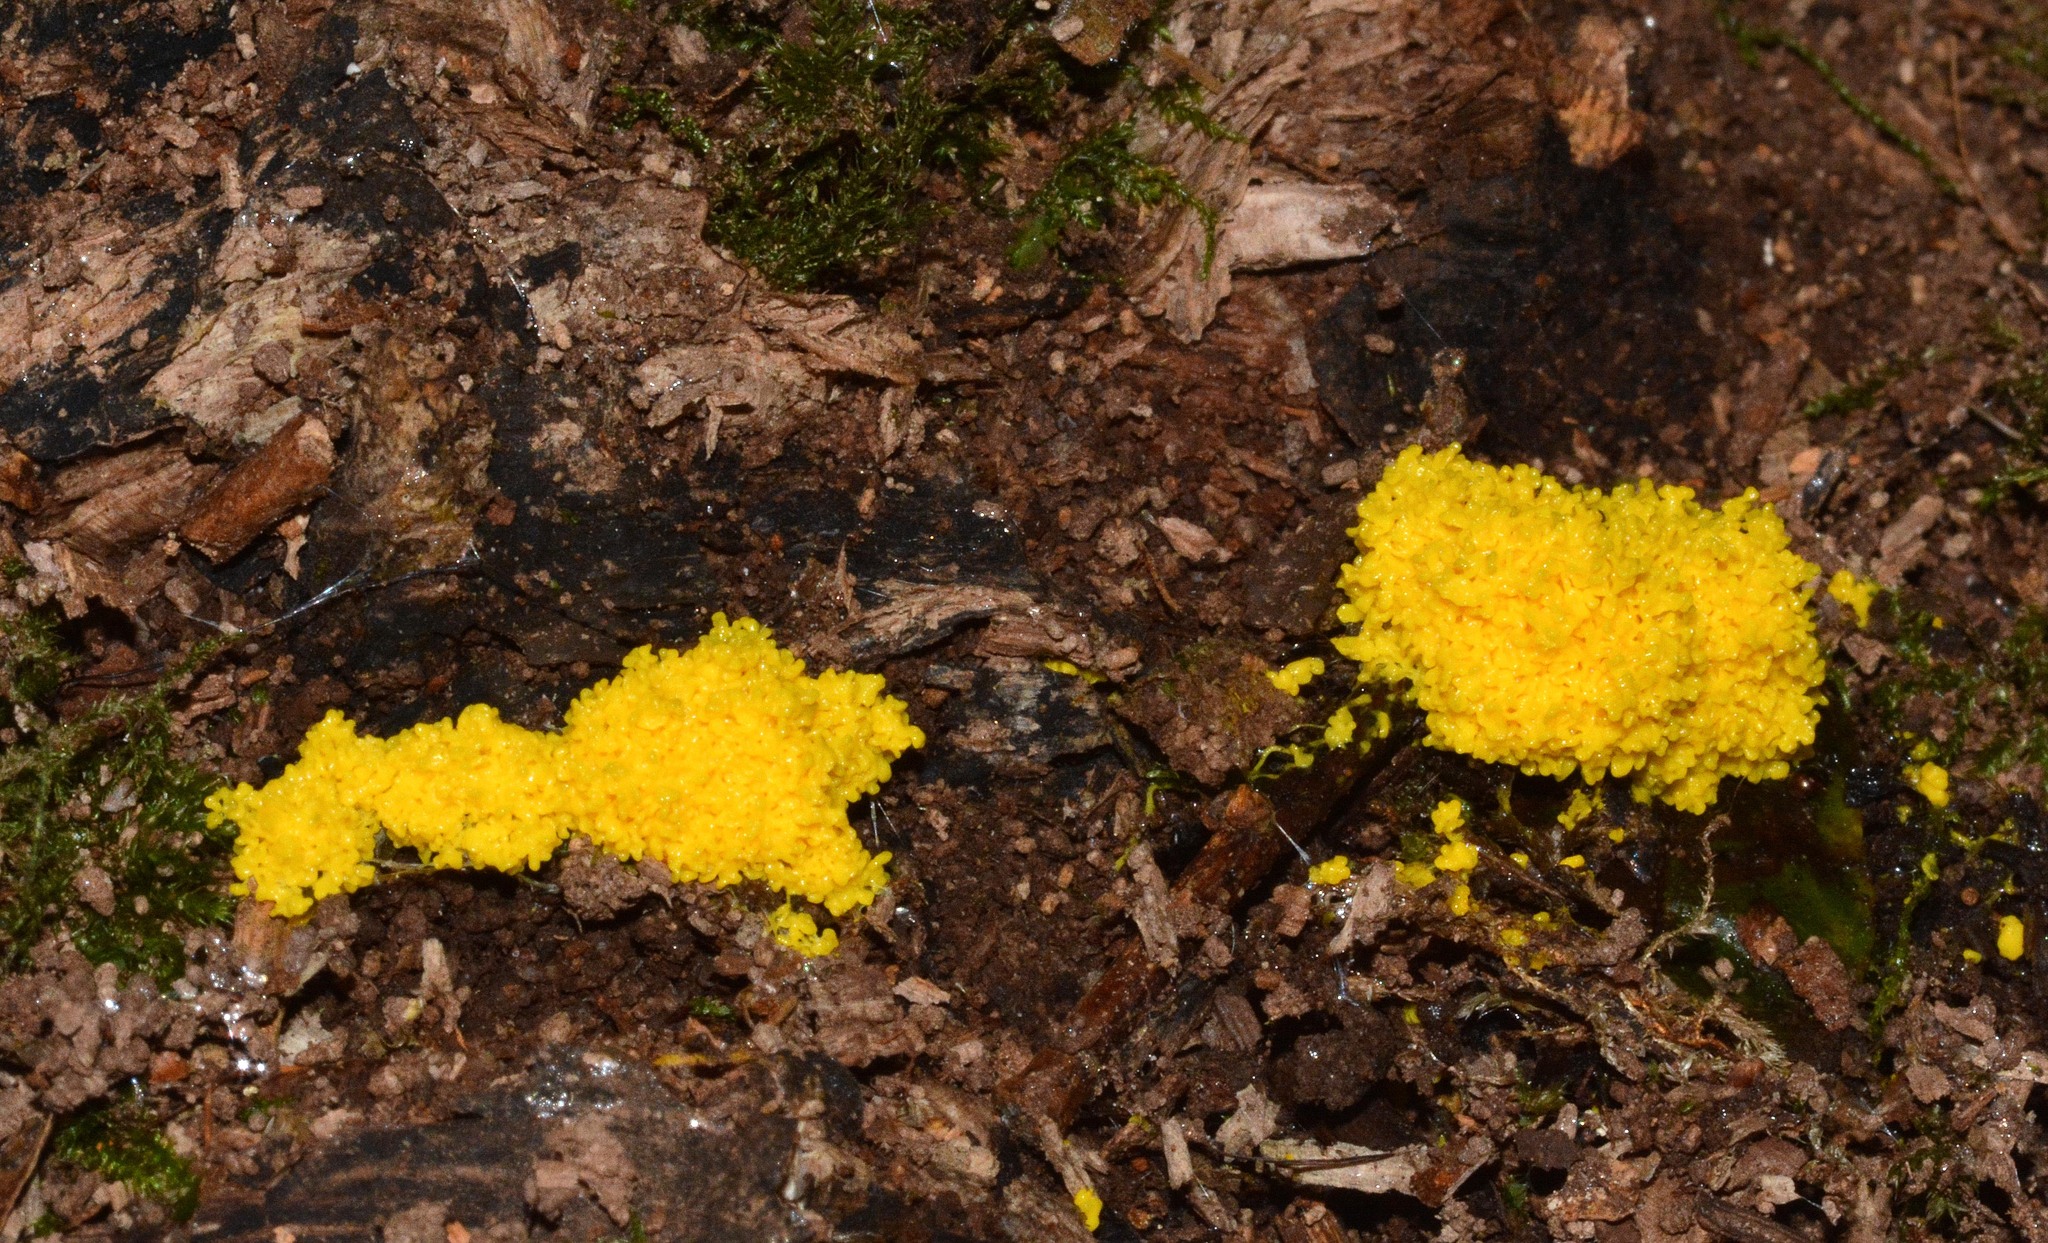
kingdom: Protozoa
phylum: Mycetozoa
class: Myxomycetes
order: Physarales
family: Physaraceae
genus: Fuligo
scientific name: Fuligo septica
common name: Dog vomit slime mold
